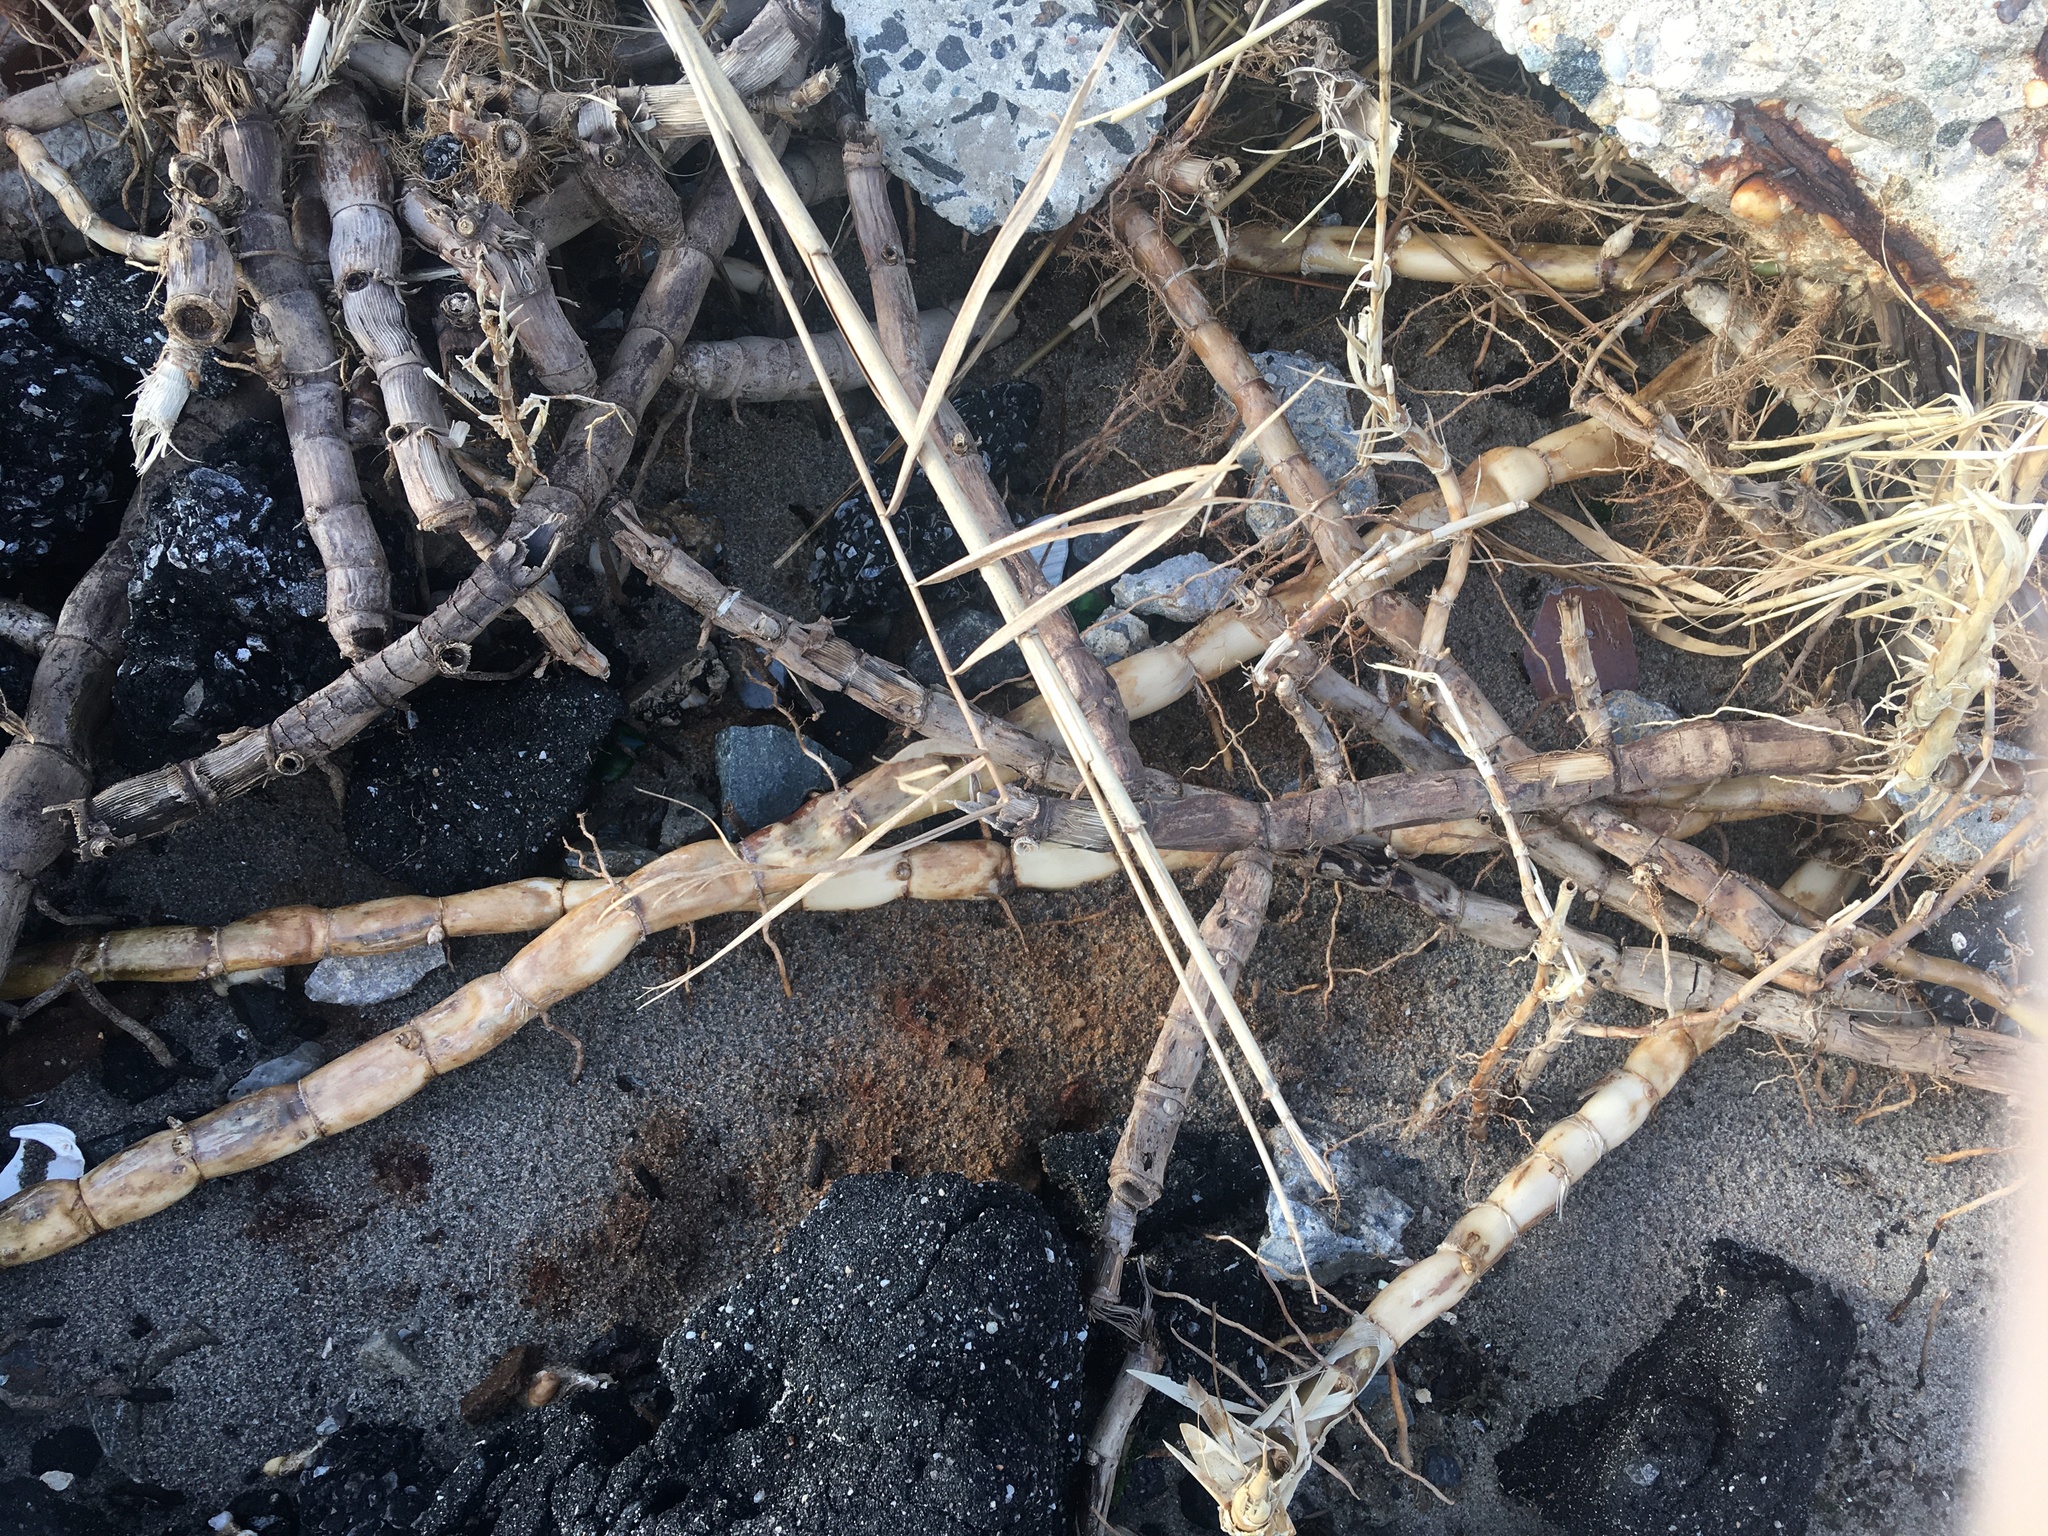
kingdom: Plantae
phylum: Tracheophyta
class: Liliopsida
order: Poales
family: Poaceae
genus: Phragmites
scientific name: Phragmites australis
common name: Common reed
